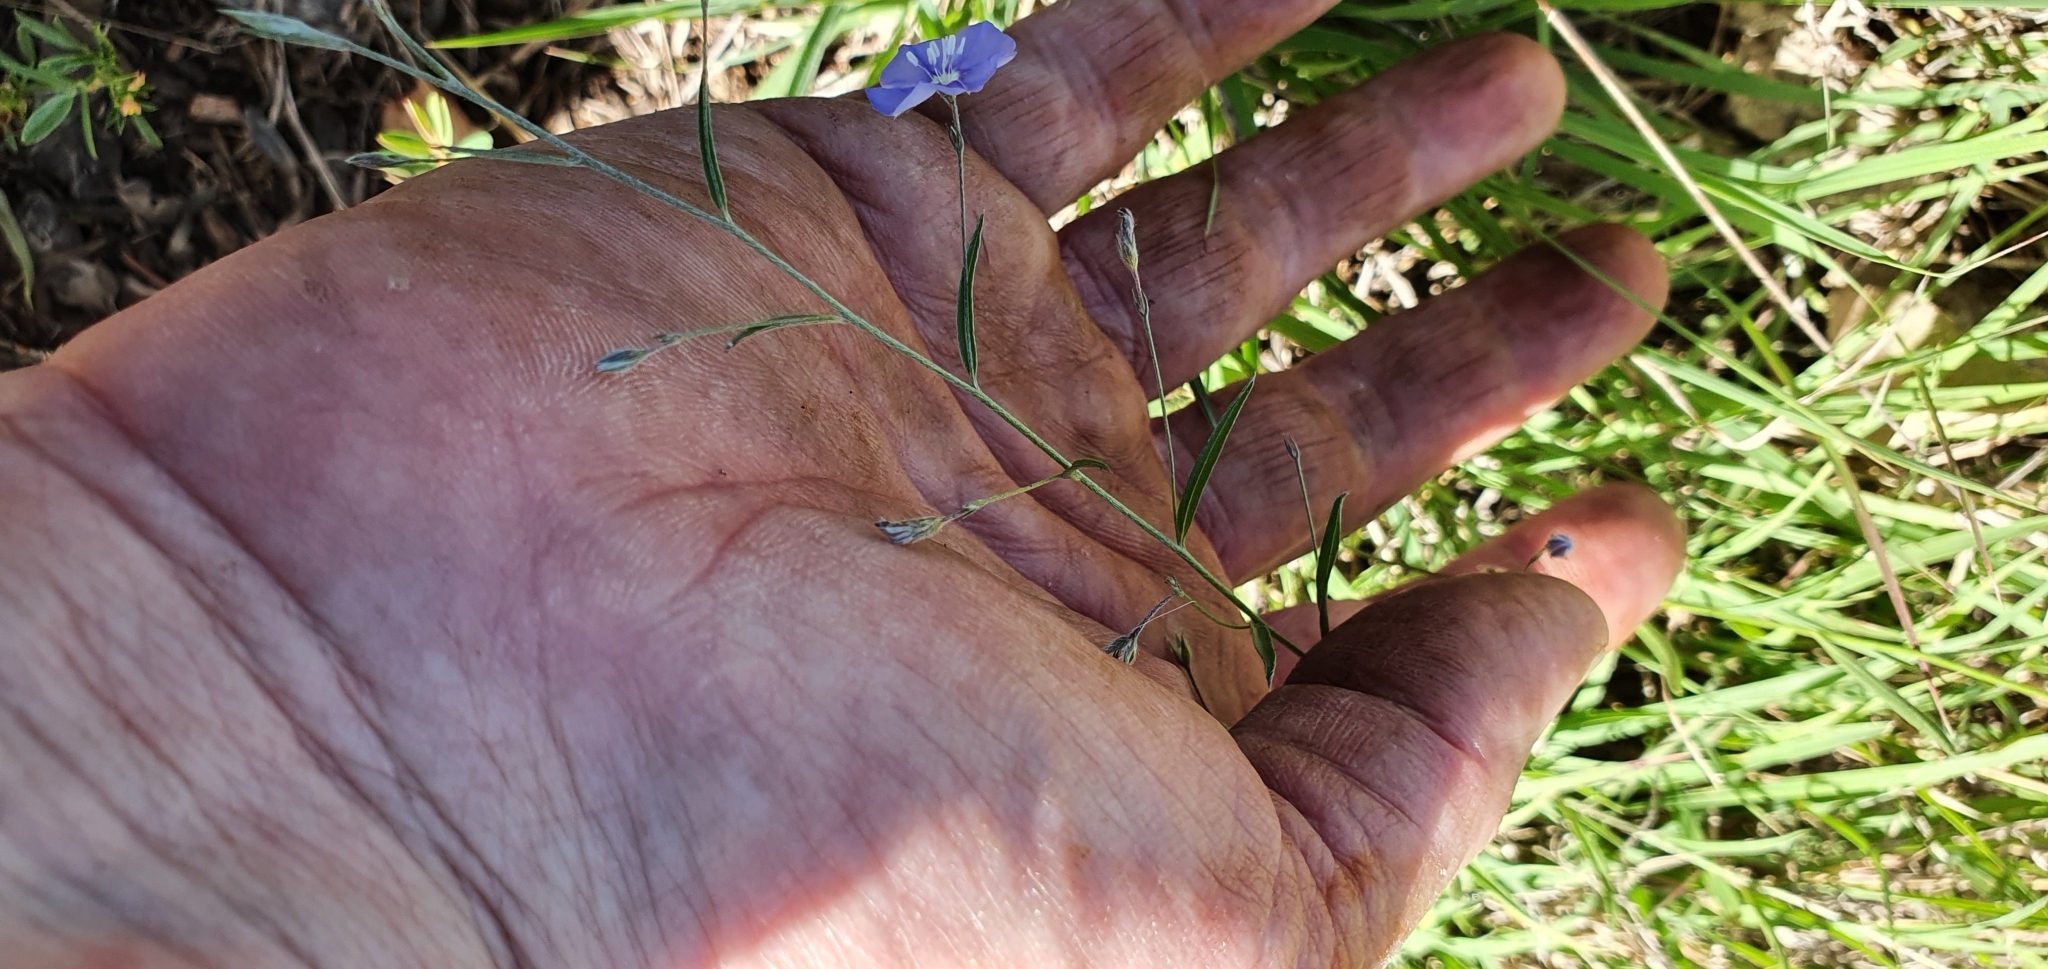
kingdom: Plantae
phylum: Tracheophyta
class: Magnoliopsida
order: Solanales
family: Convolvulaceae
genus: Evolvulus
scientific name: Evolvulus alsinoides
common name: Slender dwarf morning-glory
